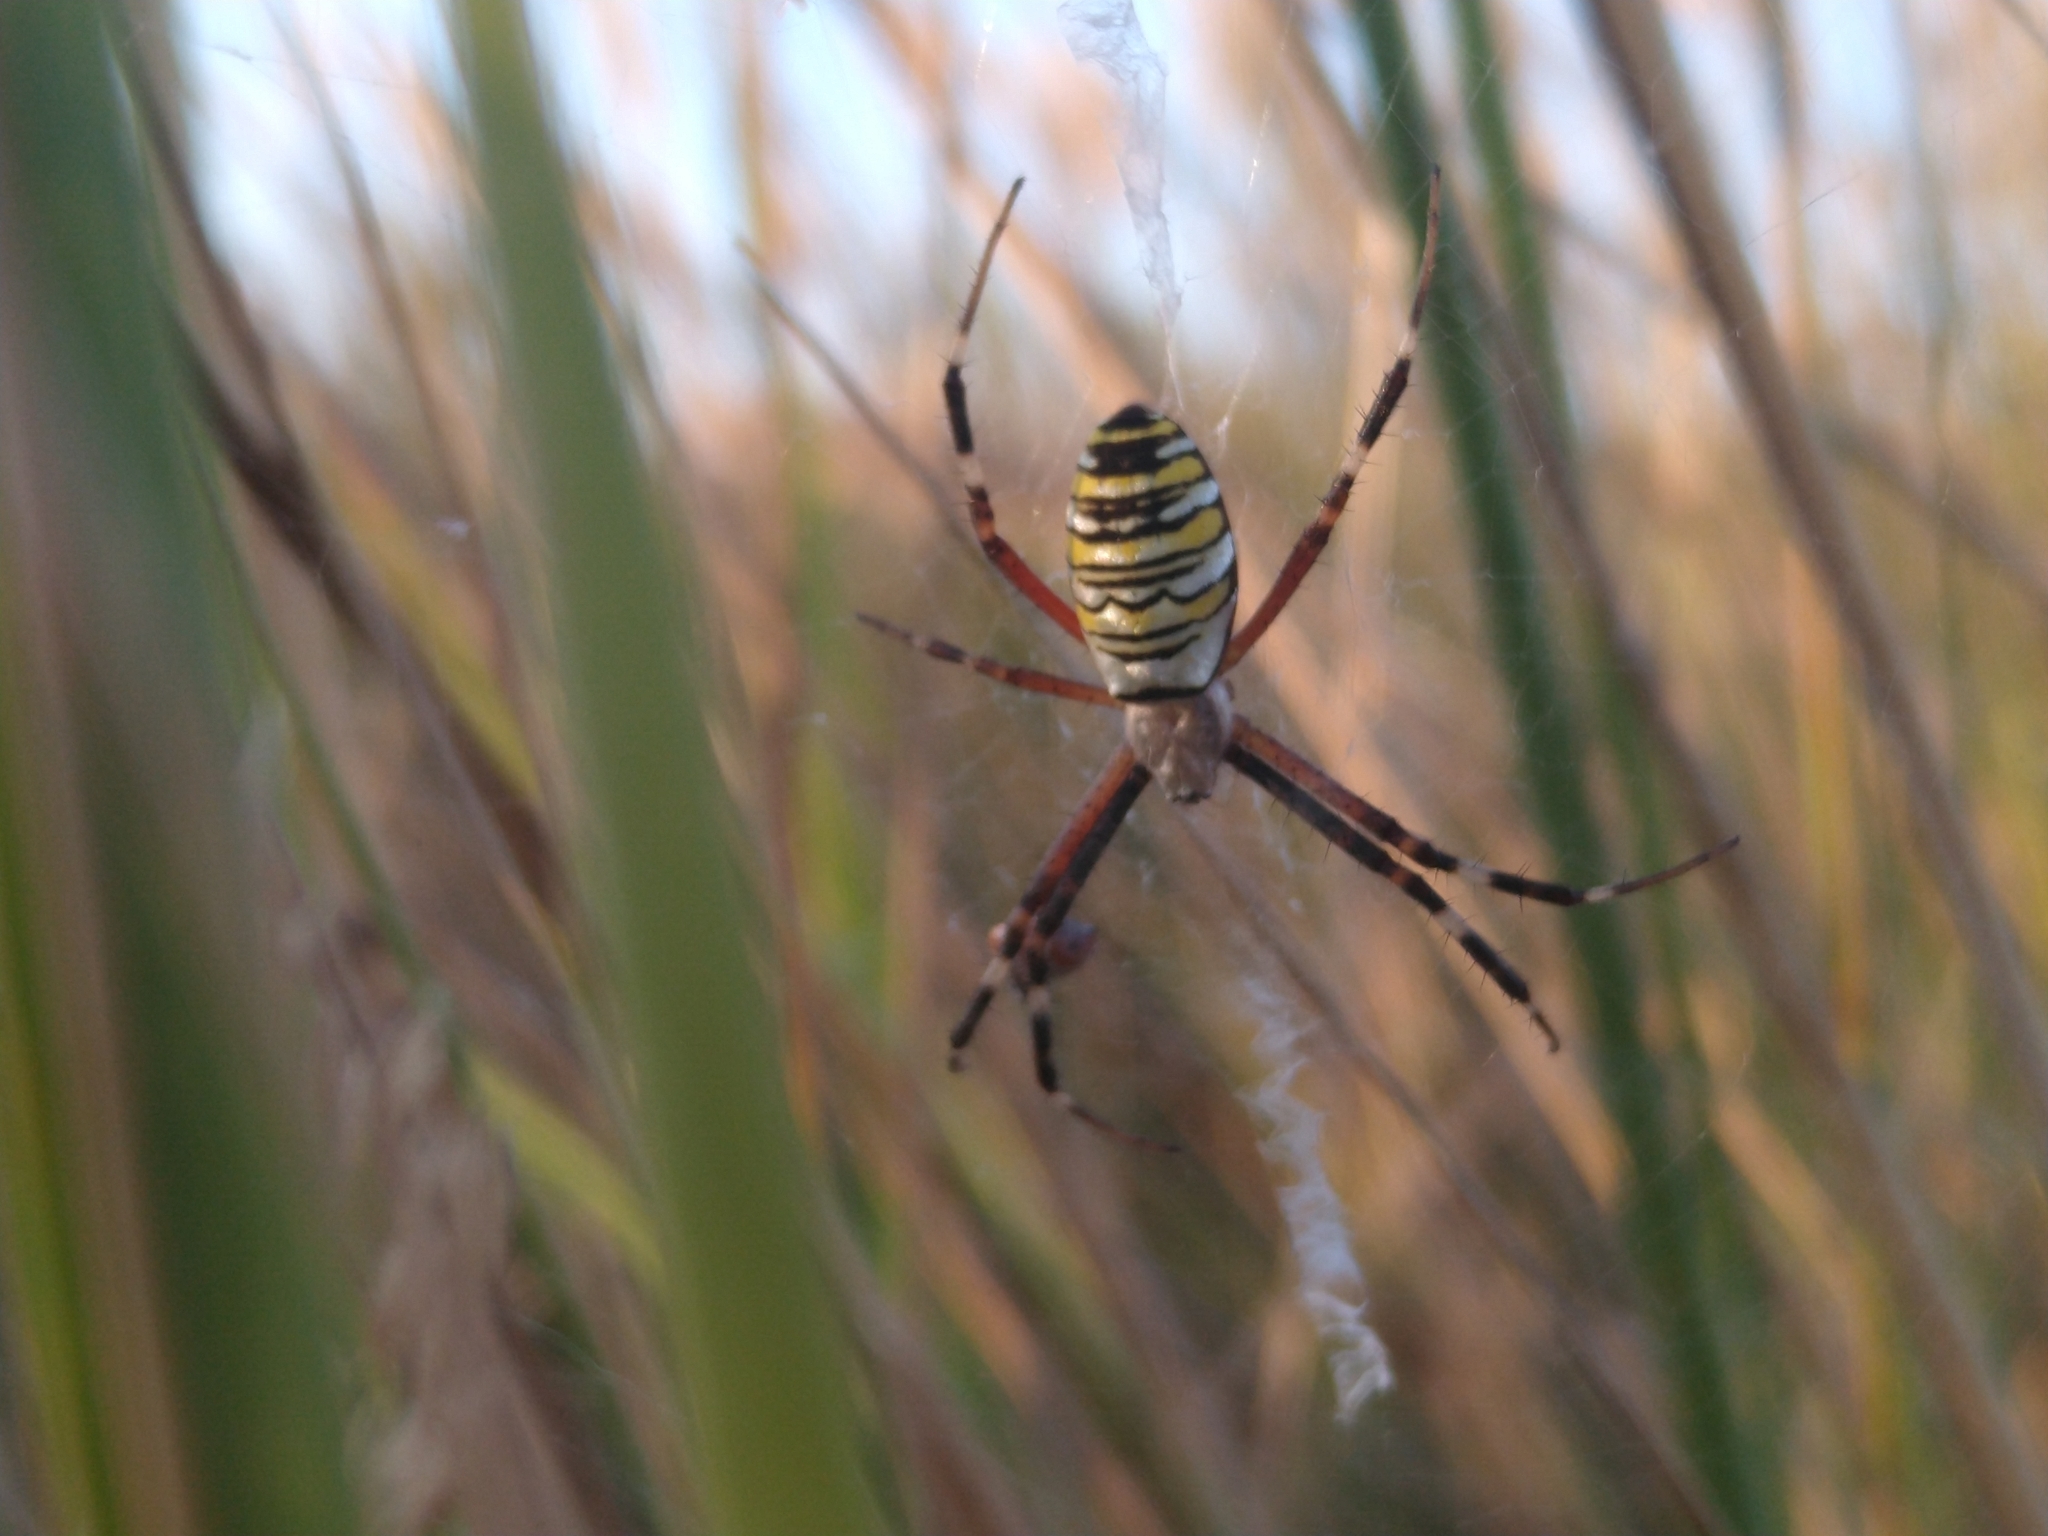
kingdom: Animalia
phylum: Arthropoda
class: Arachnida
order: Araneae
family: Araneidae
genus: Argiope
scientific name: Argiope bruennichi
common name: Wasp spider
